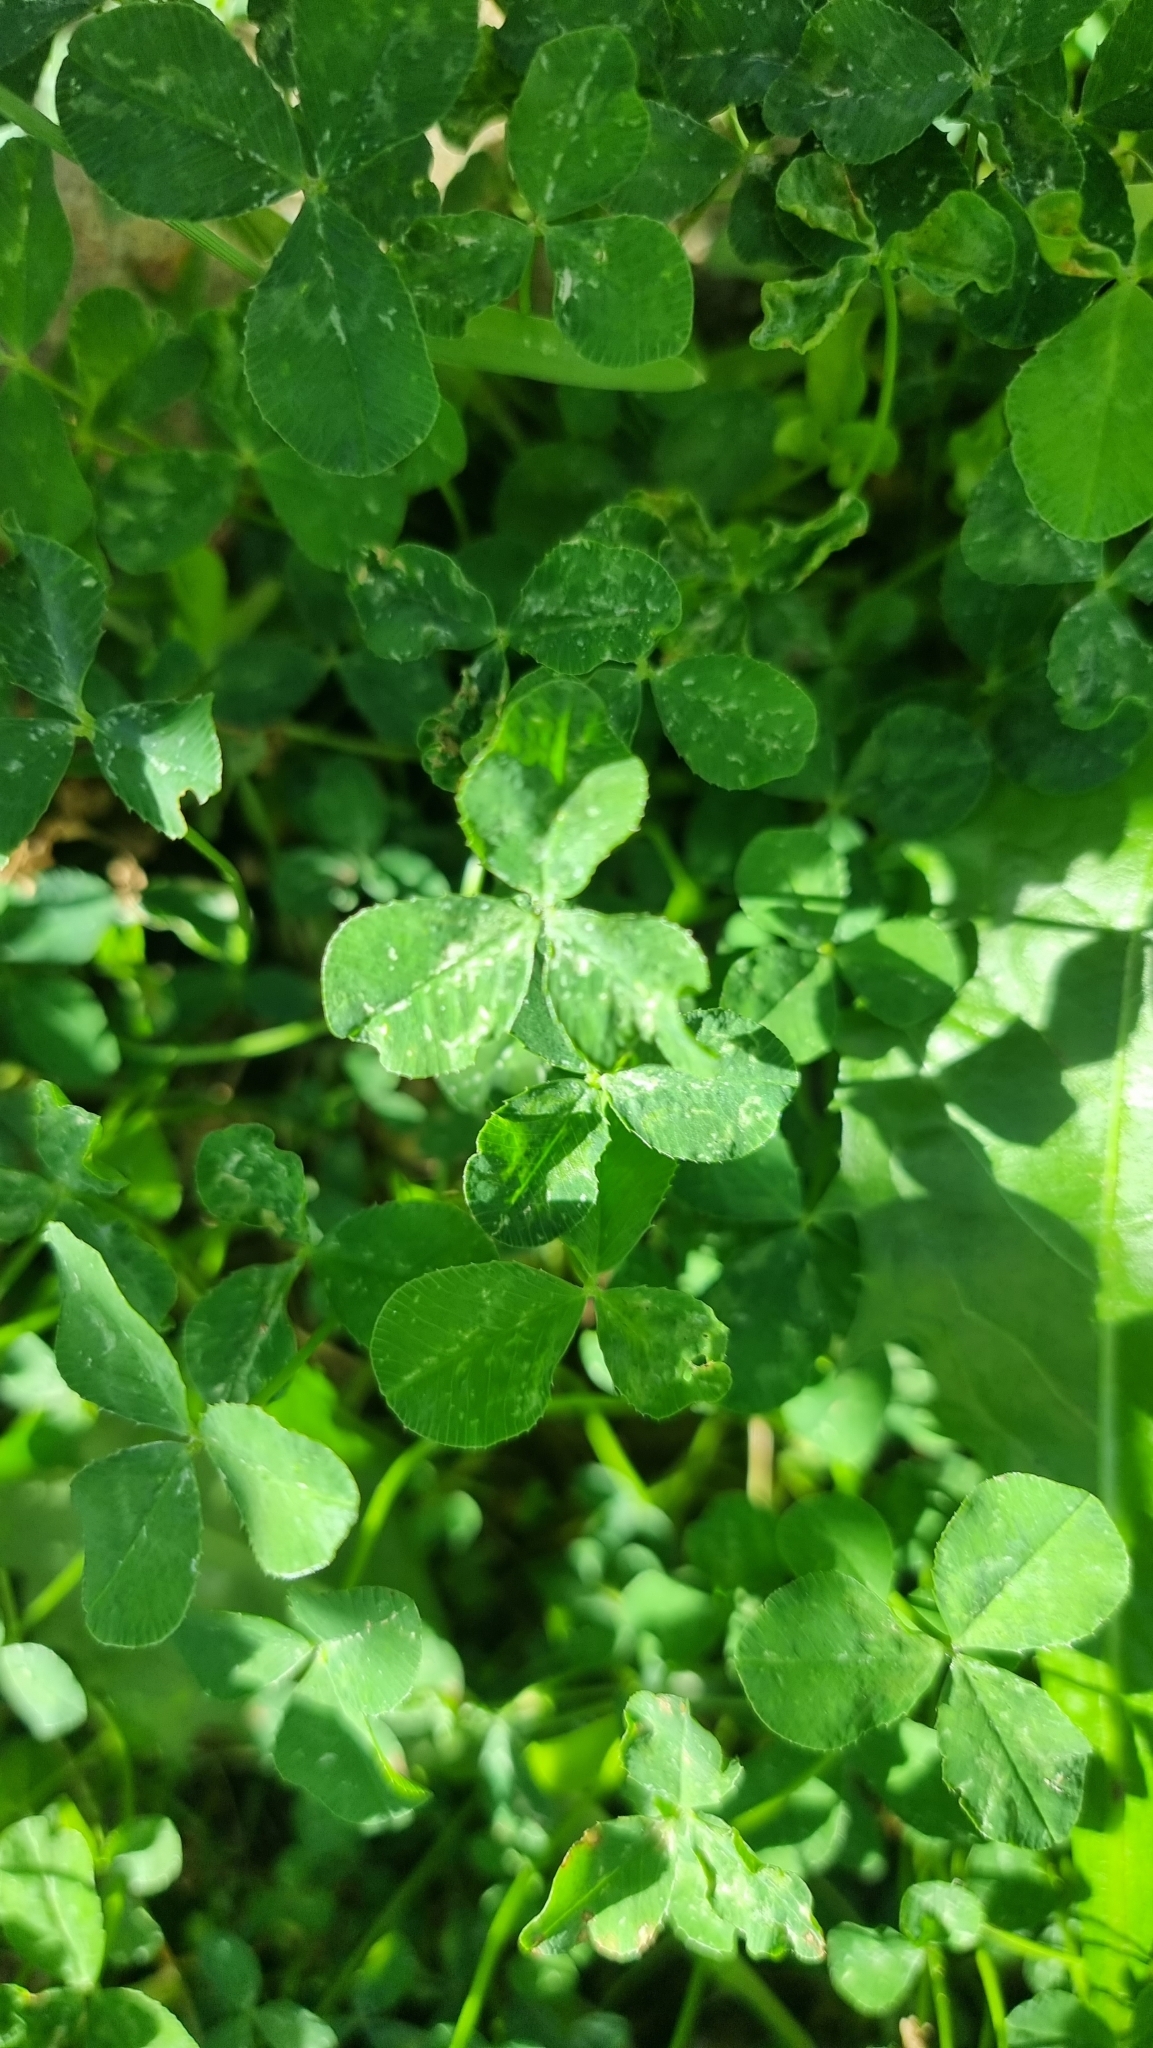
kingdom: Plantae
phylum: Tracheophyta
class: Magnoliopsida
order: Fabales
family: Fabaceae
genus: Trifolium
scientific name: Trifolium repens
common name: White clover
